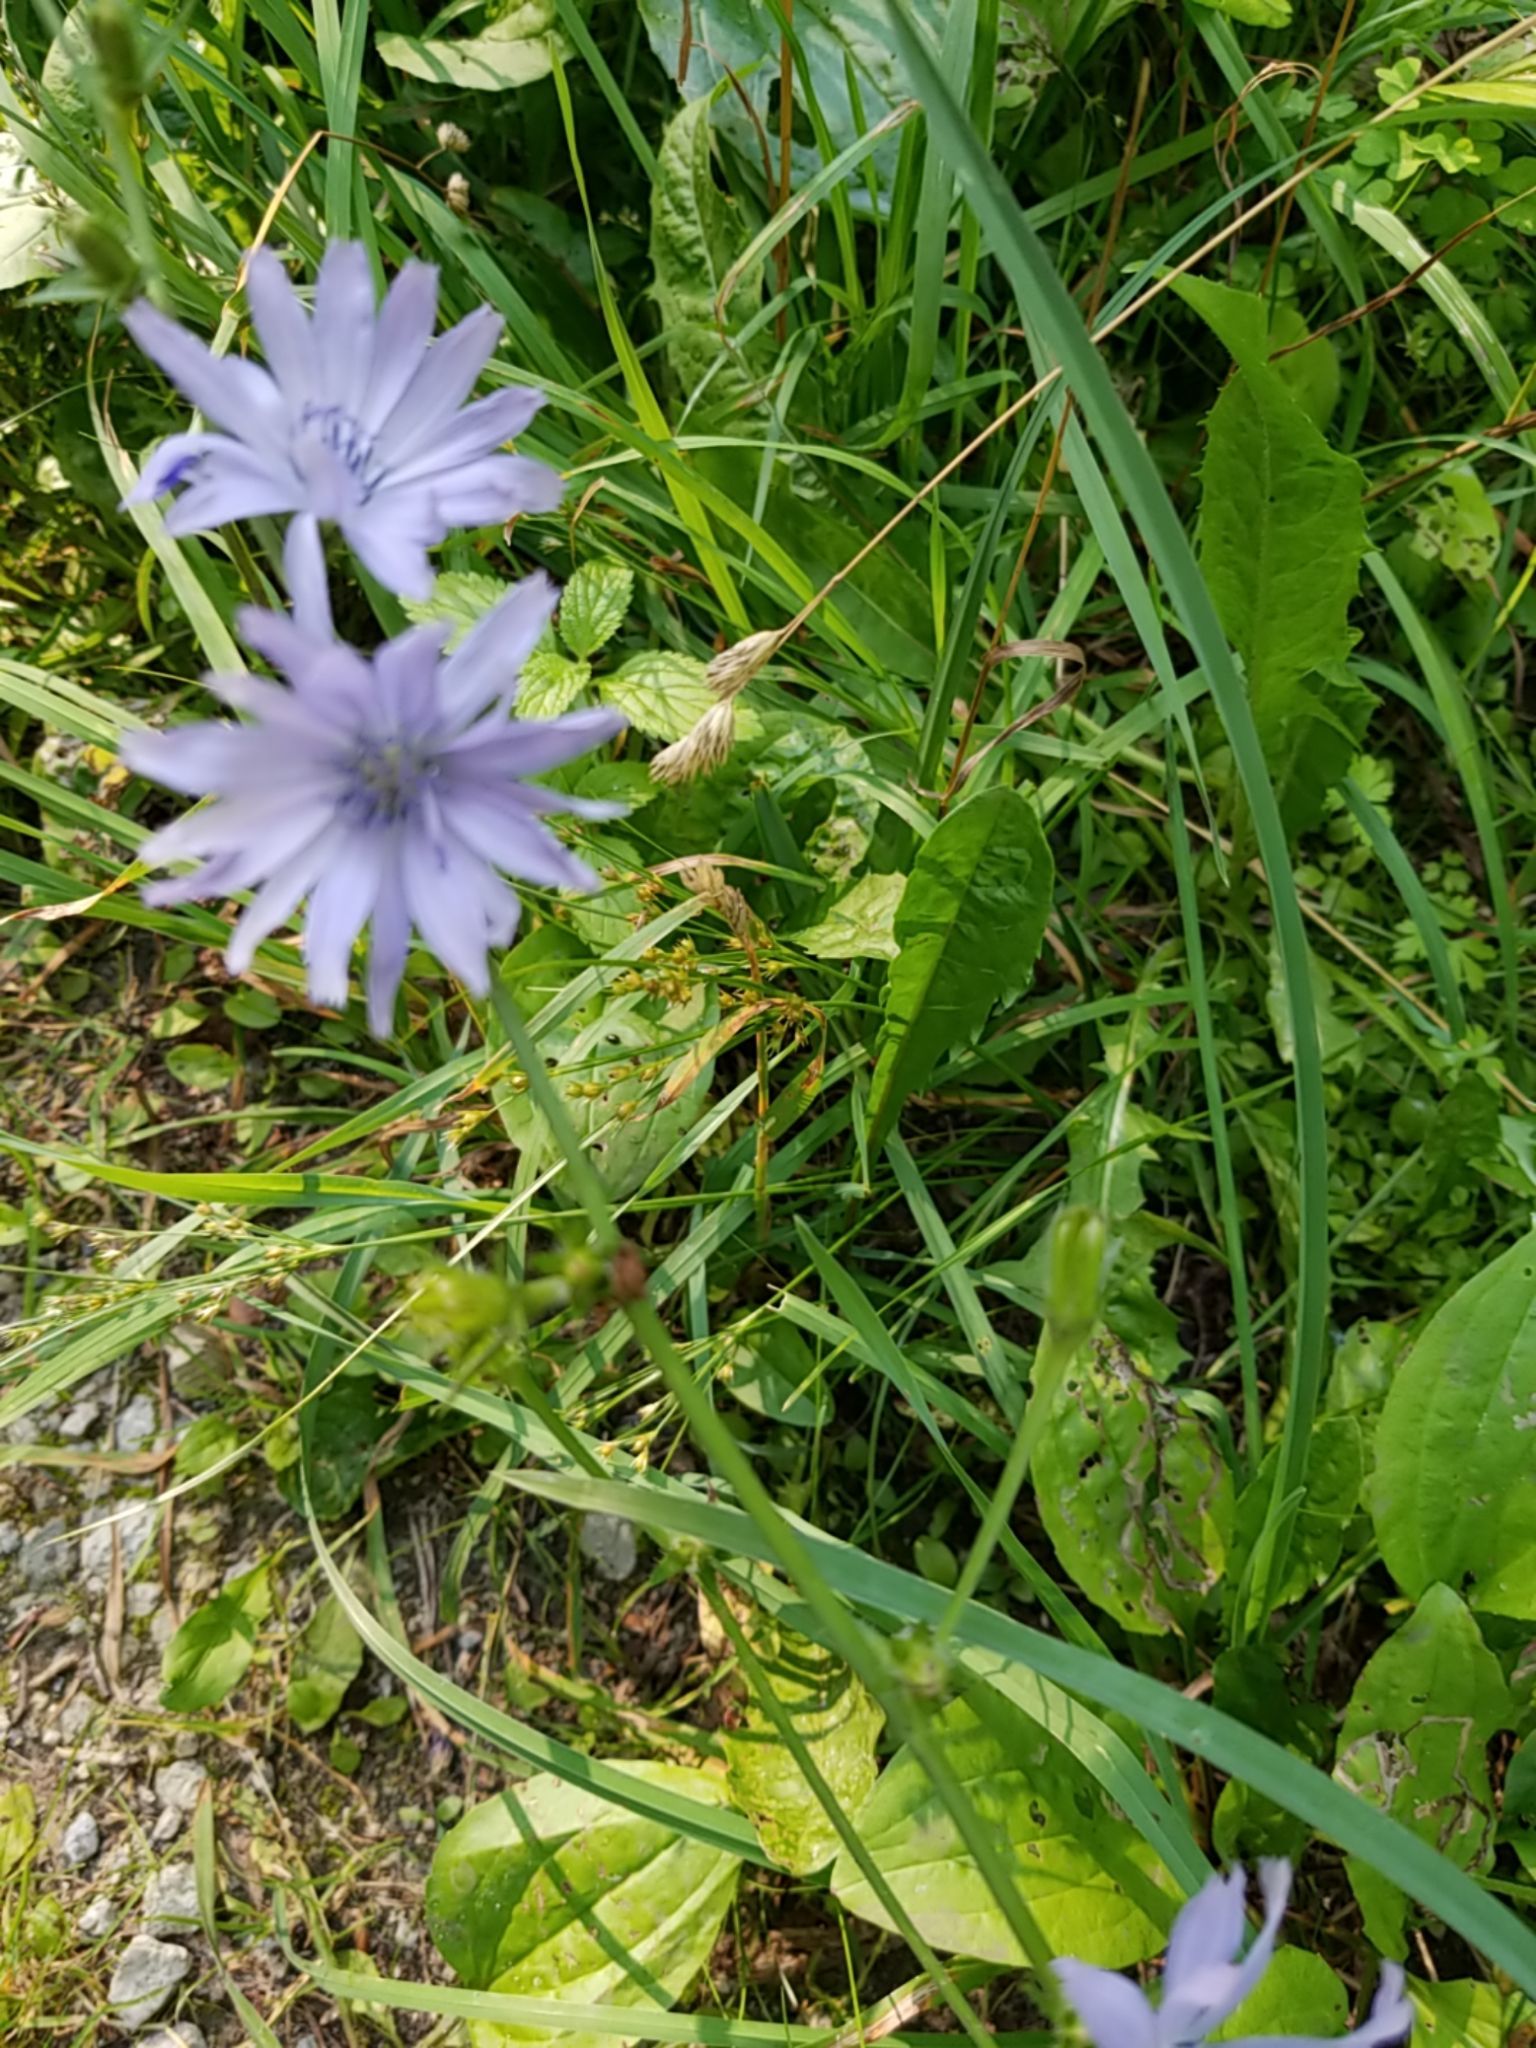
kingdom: Plantae
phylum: Tracheophyta
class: Magnoliopsida
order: Asterales
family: Asteraceae
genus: Cichorium
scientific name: Cichorium intybus
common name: Chicory
